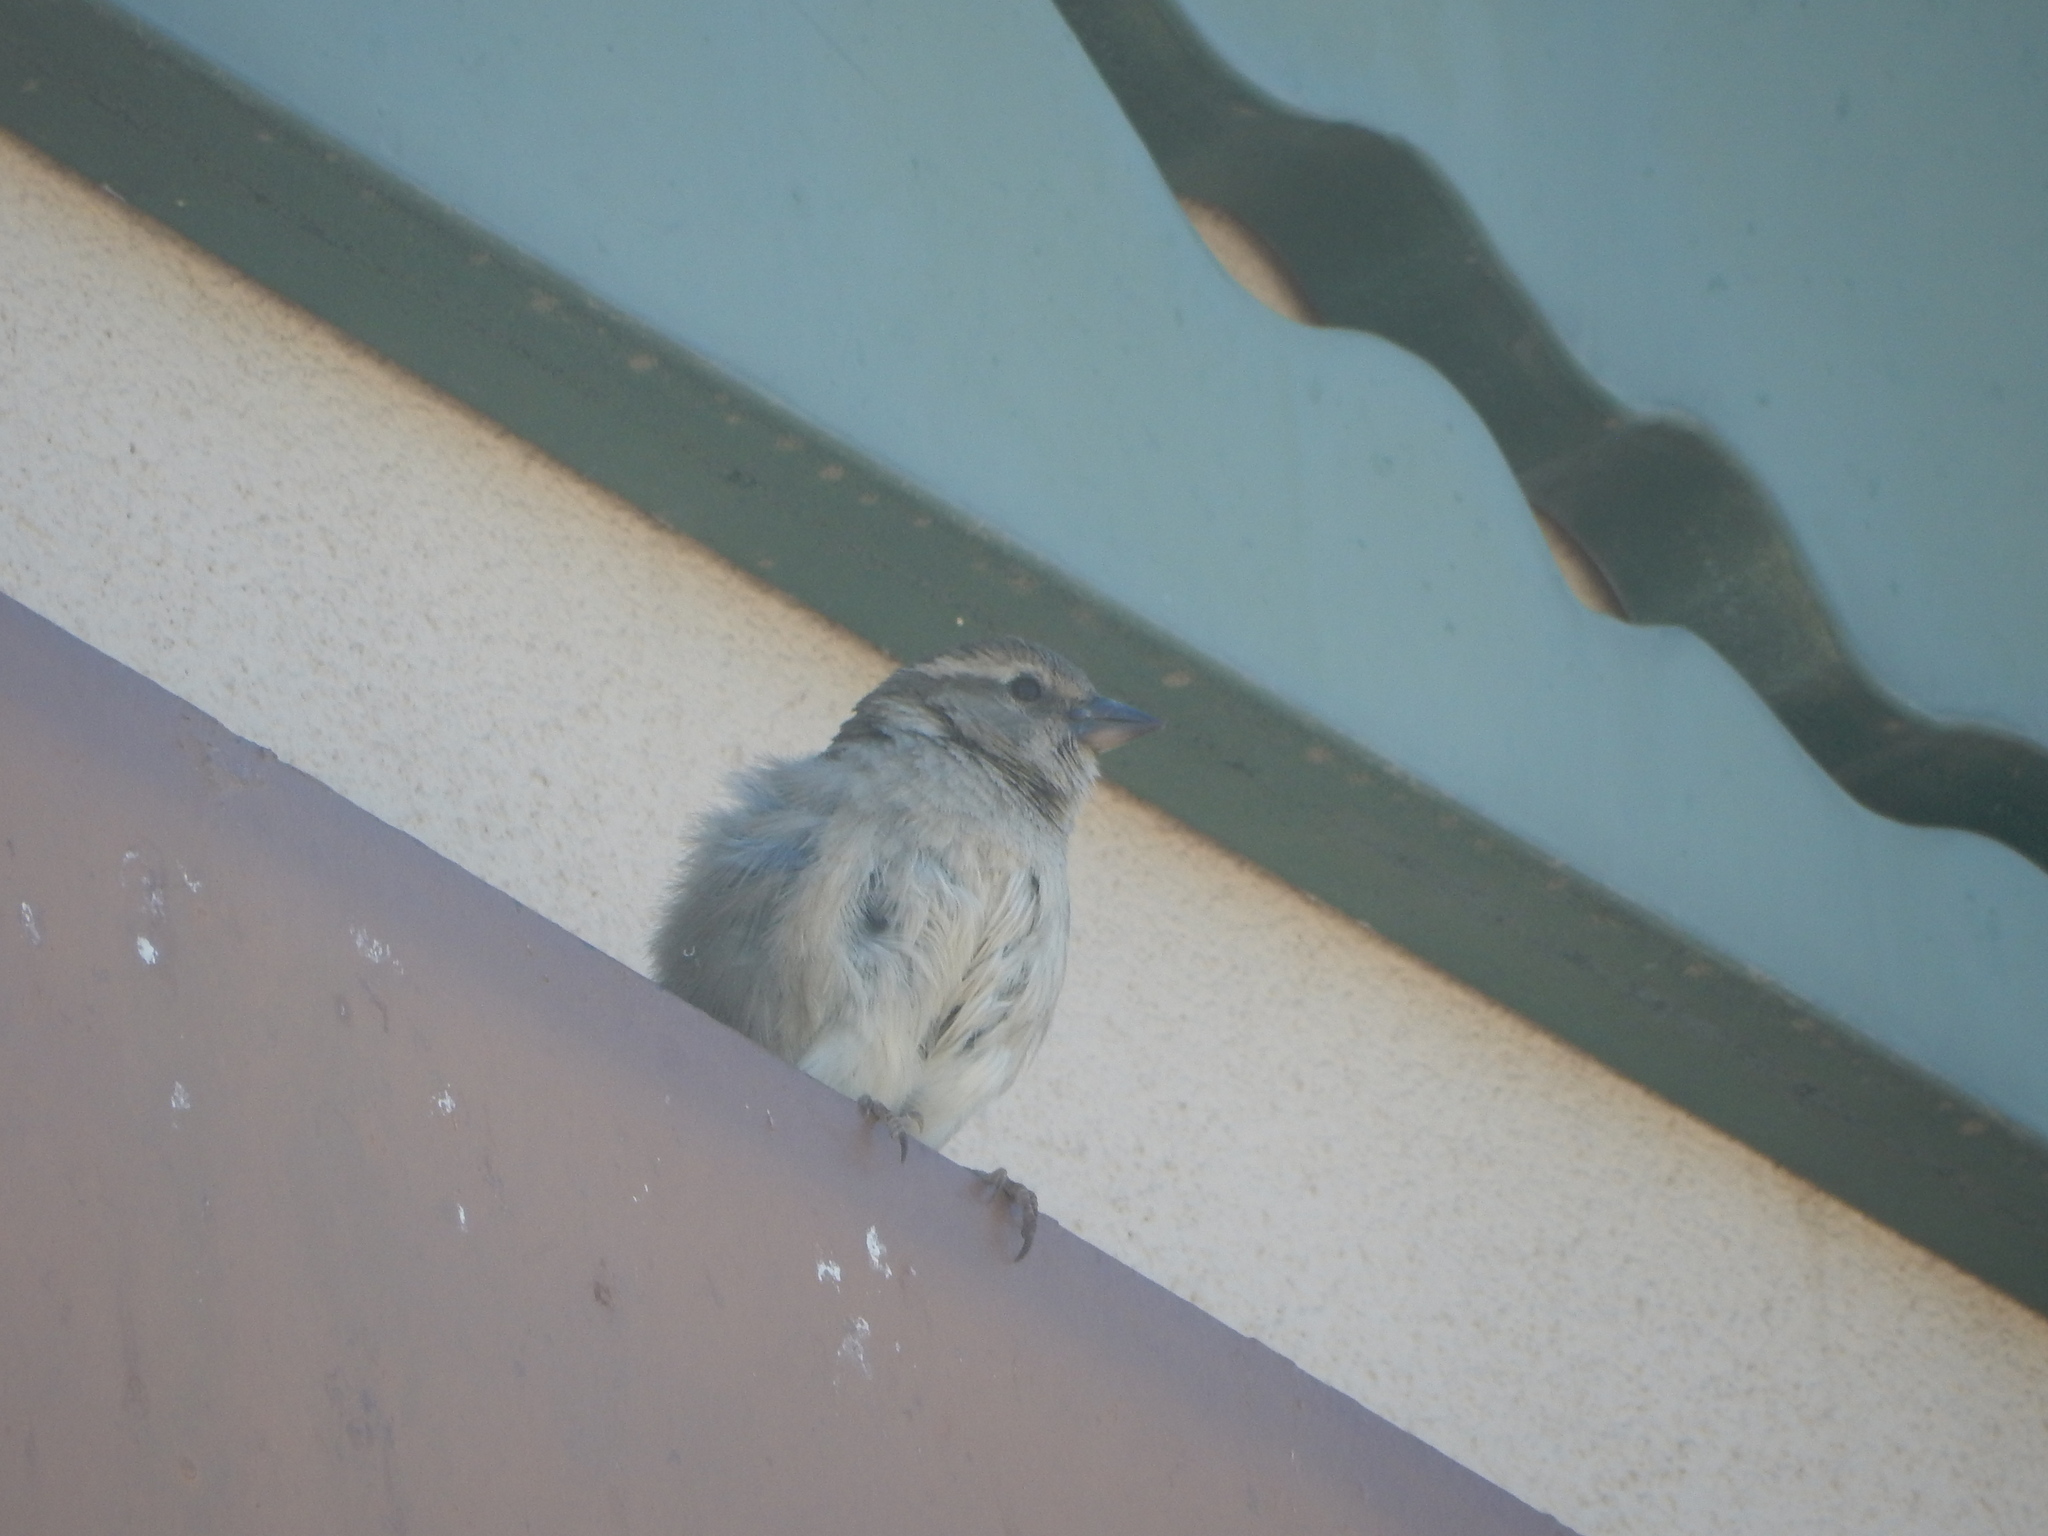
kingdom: Animalia
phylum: Chordata
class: Aves
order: Passeriformes
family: Passeridae
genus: Passer
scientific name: Passer domesticus
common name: House sparrow
